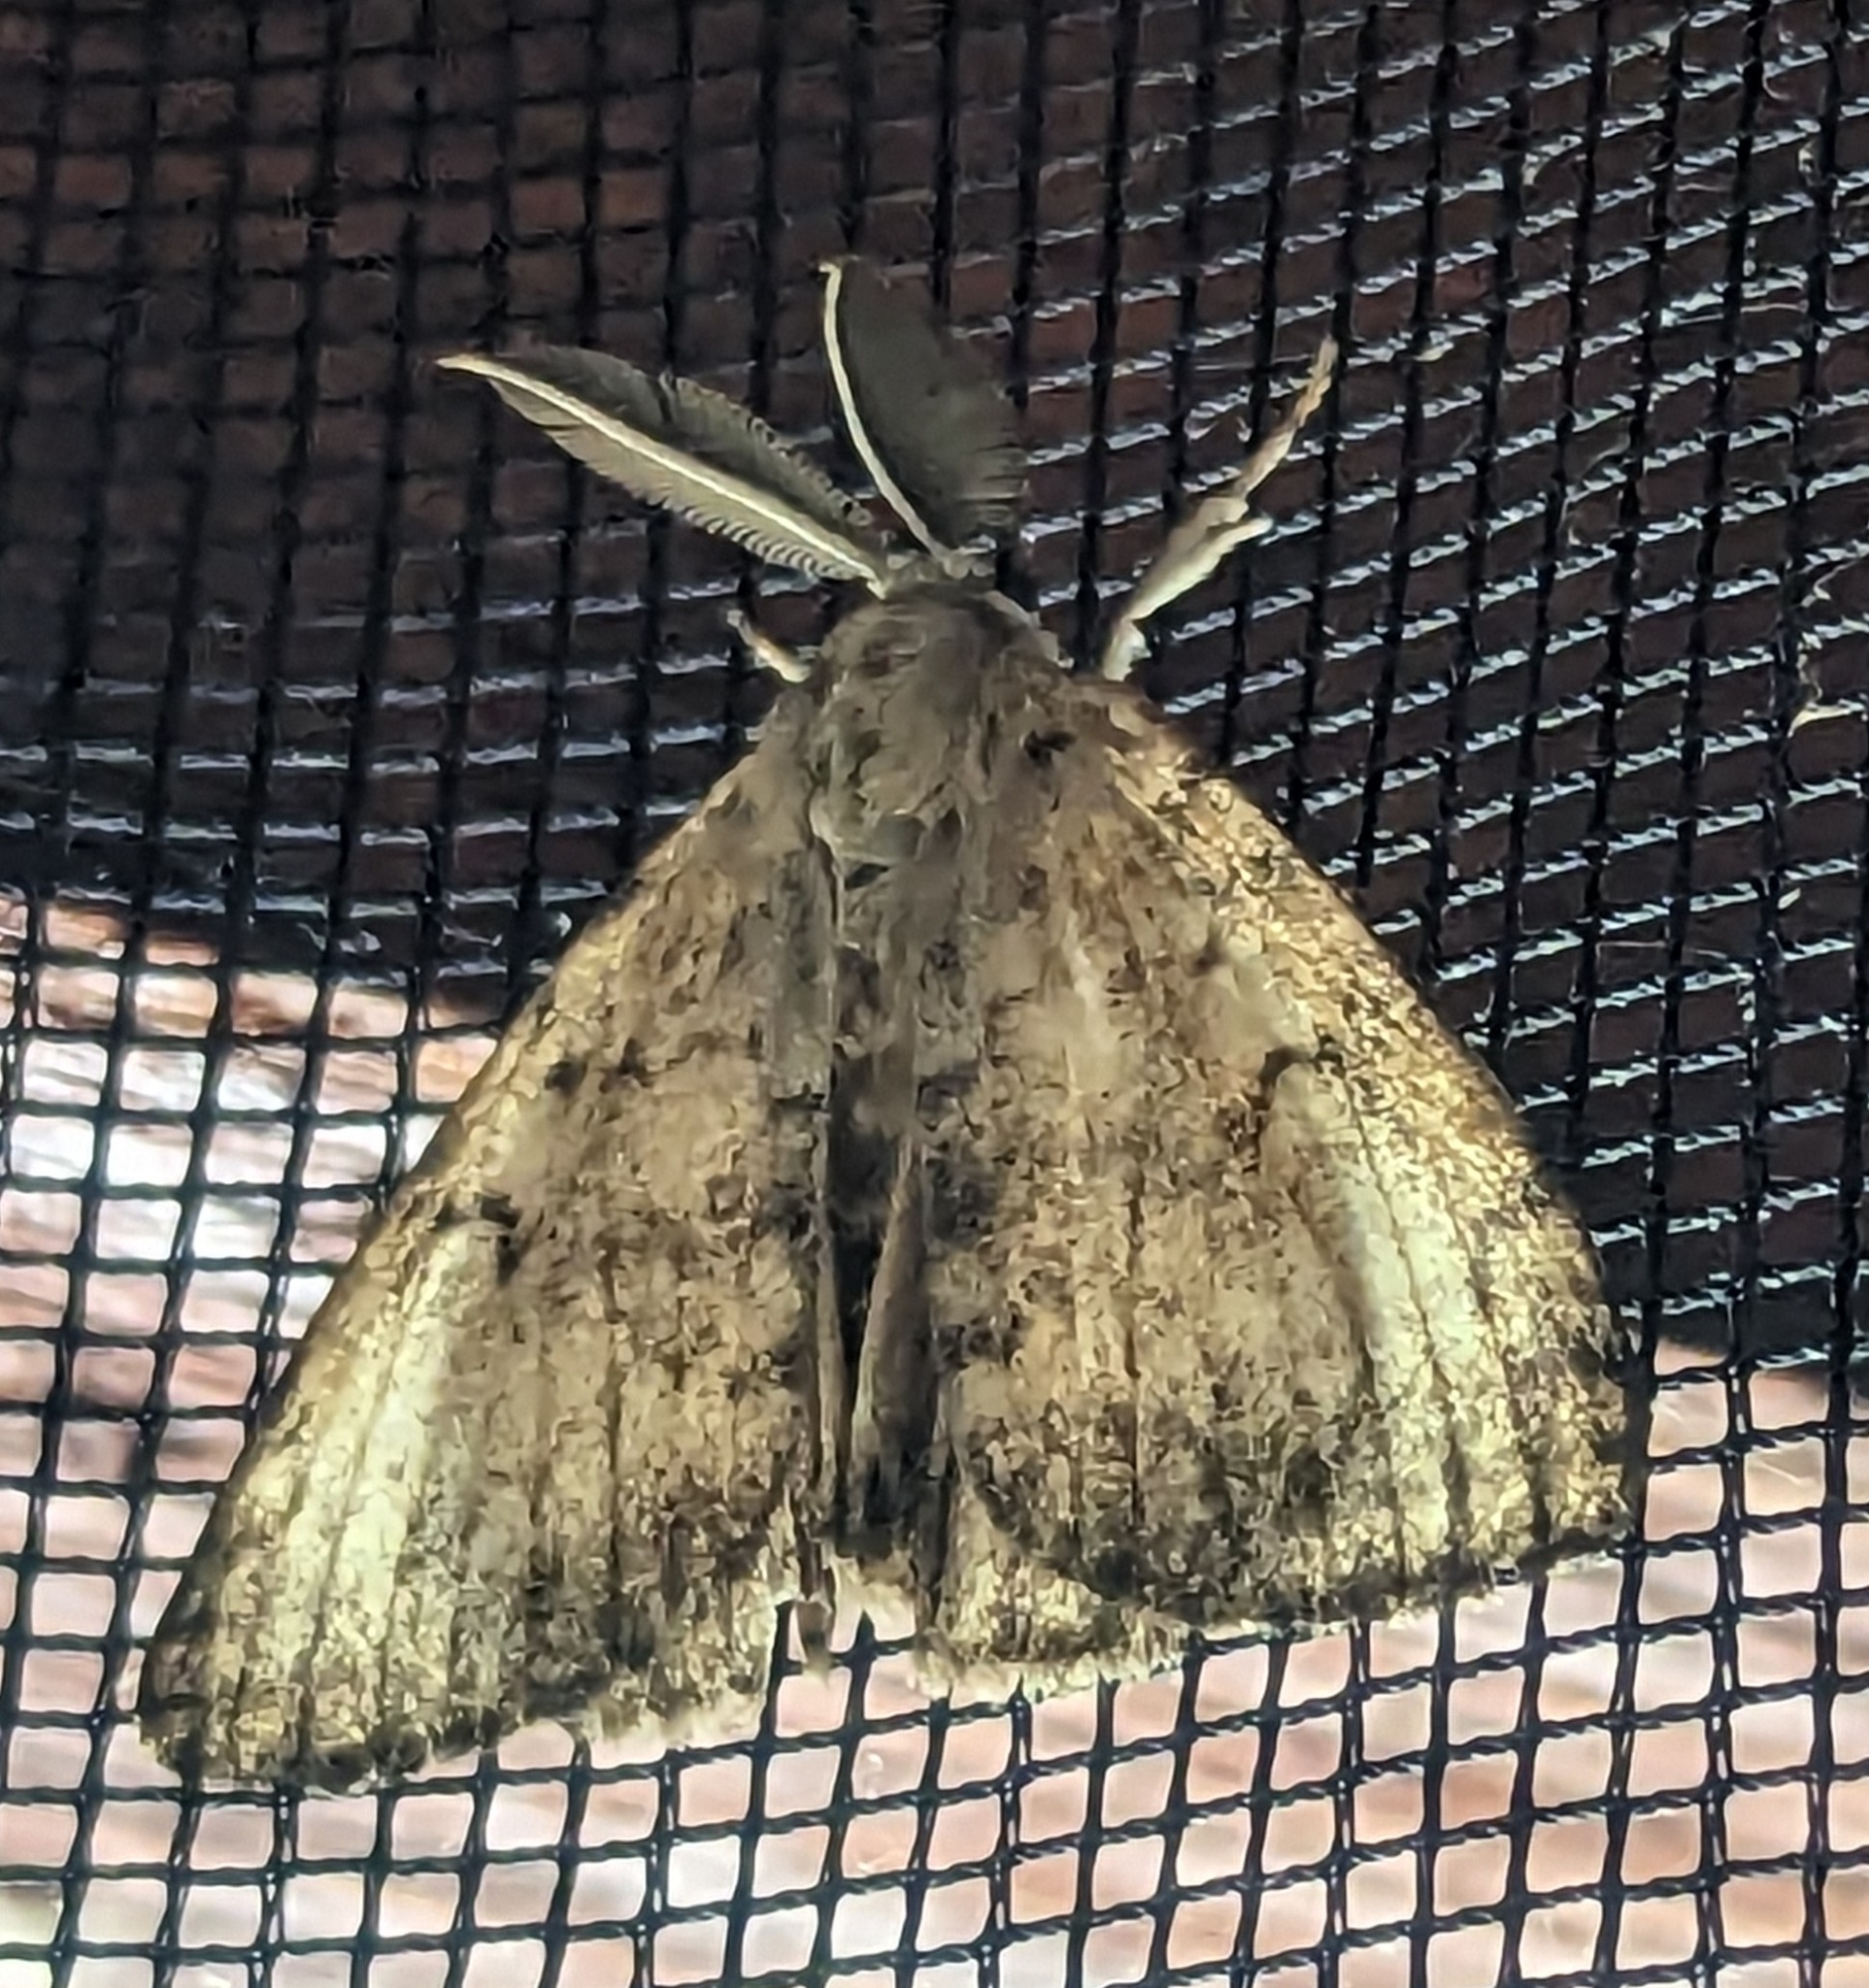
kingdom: Animalia
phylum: Arthropoda
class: Insecta
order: Lepidoptera
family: Erebidae
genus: Lymantria
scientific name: Lymantria dispar
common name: Gypsy moth
